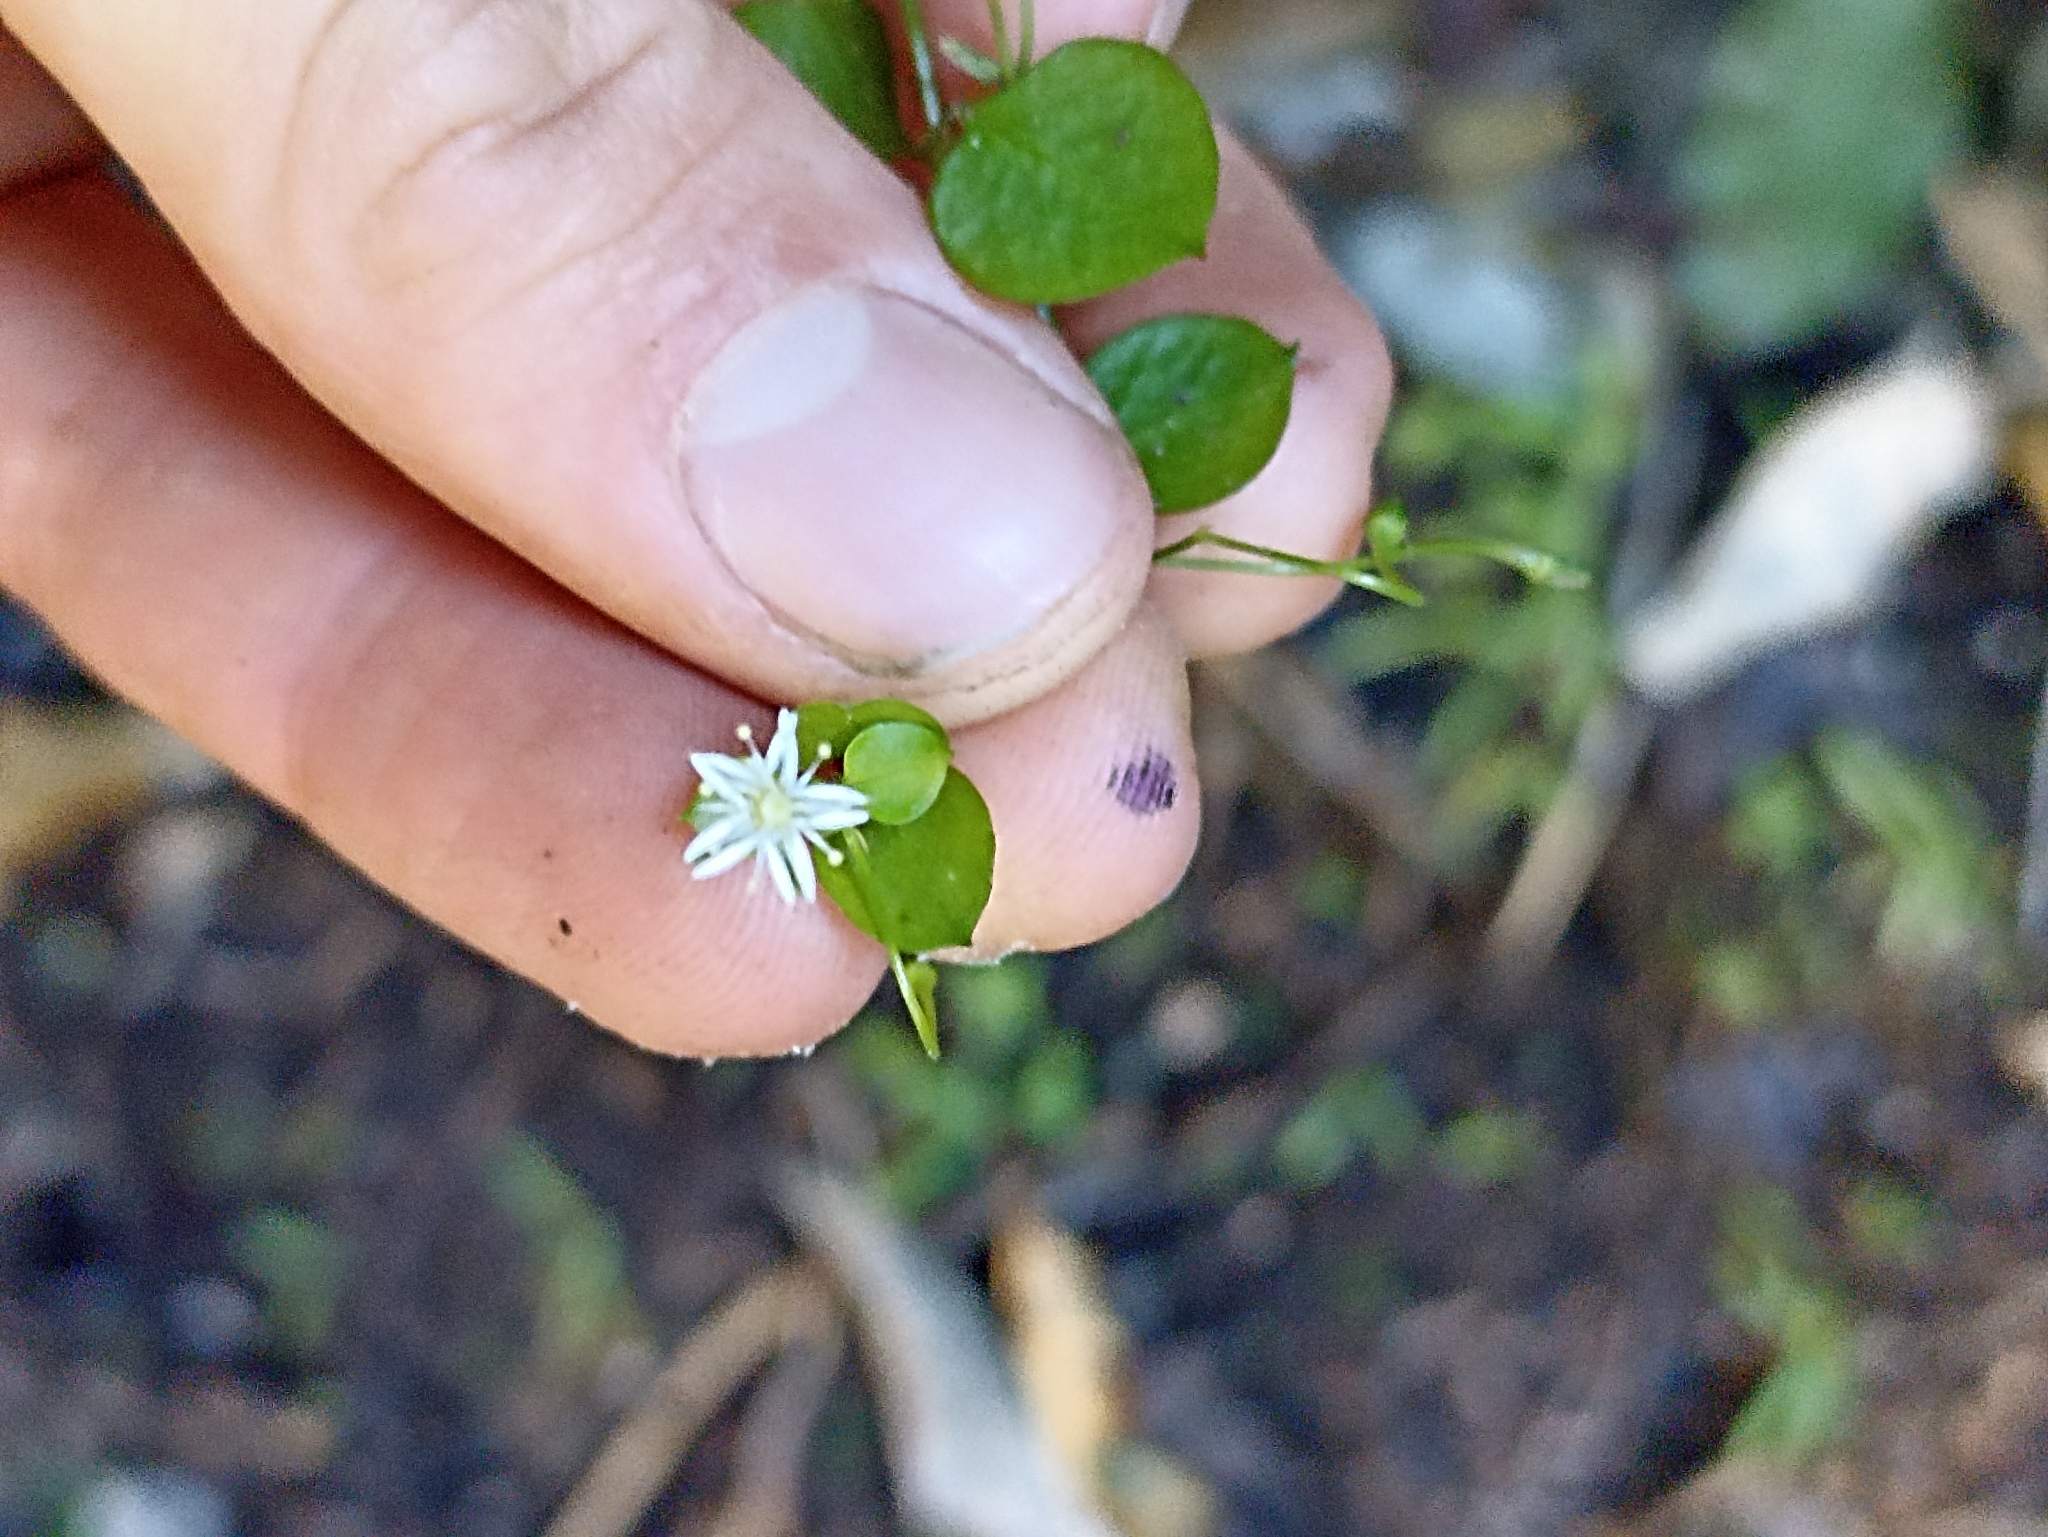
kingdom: Plantae
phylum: Tracheophyta
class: Magnoliopsida
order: Caryophyllales
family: Caryophyllaceae
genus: Stellaria
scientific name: Stellaria parviflora
